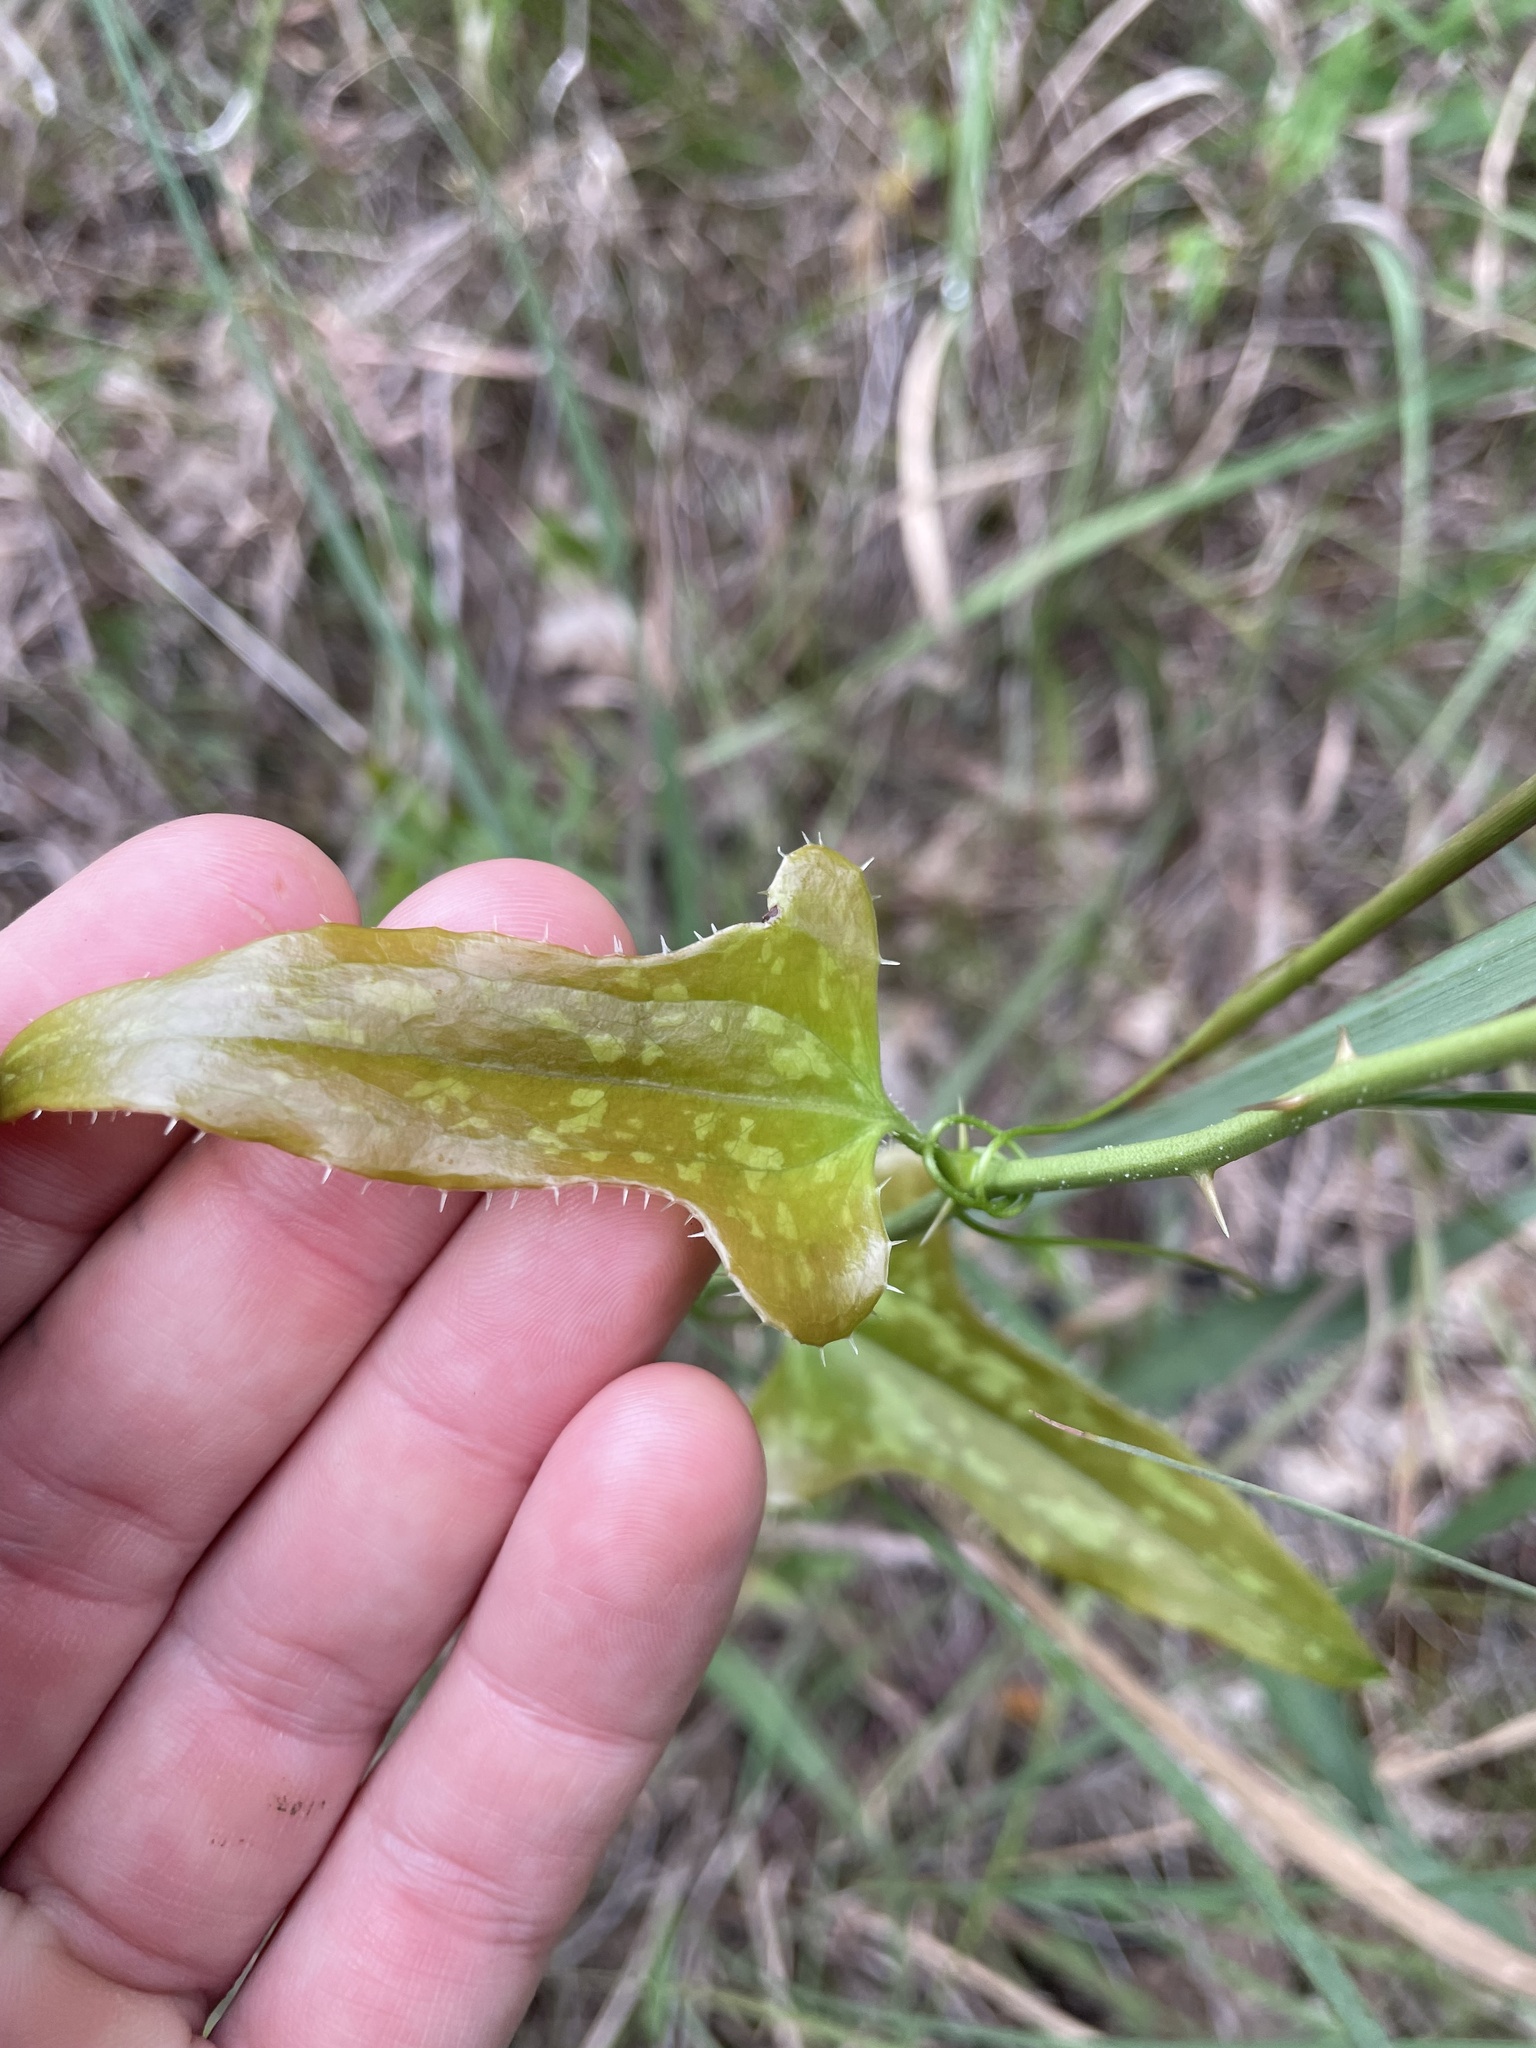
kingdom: Plantae
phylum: Tracheophyta
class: Liliopsida
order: Liliales
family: Smilacaceae
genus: Smilax
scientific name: Smilax bona-nox
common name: Catbrier
